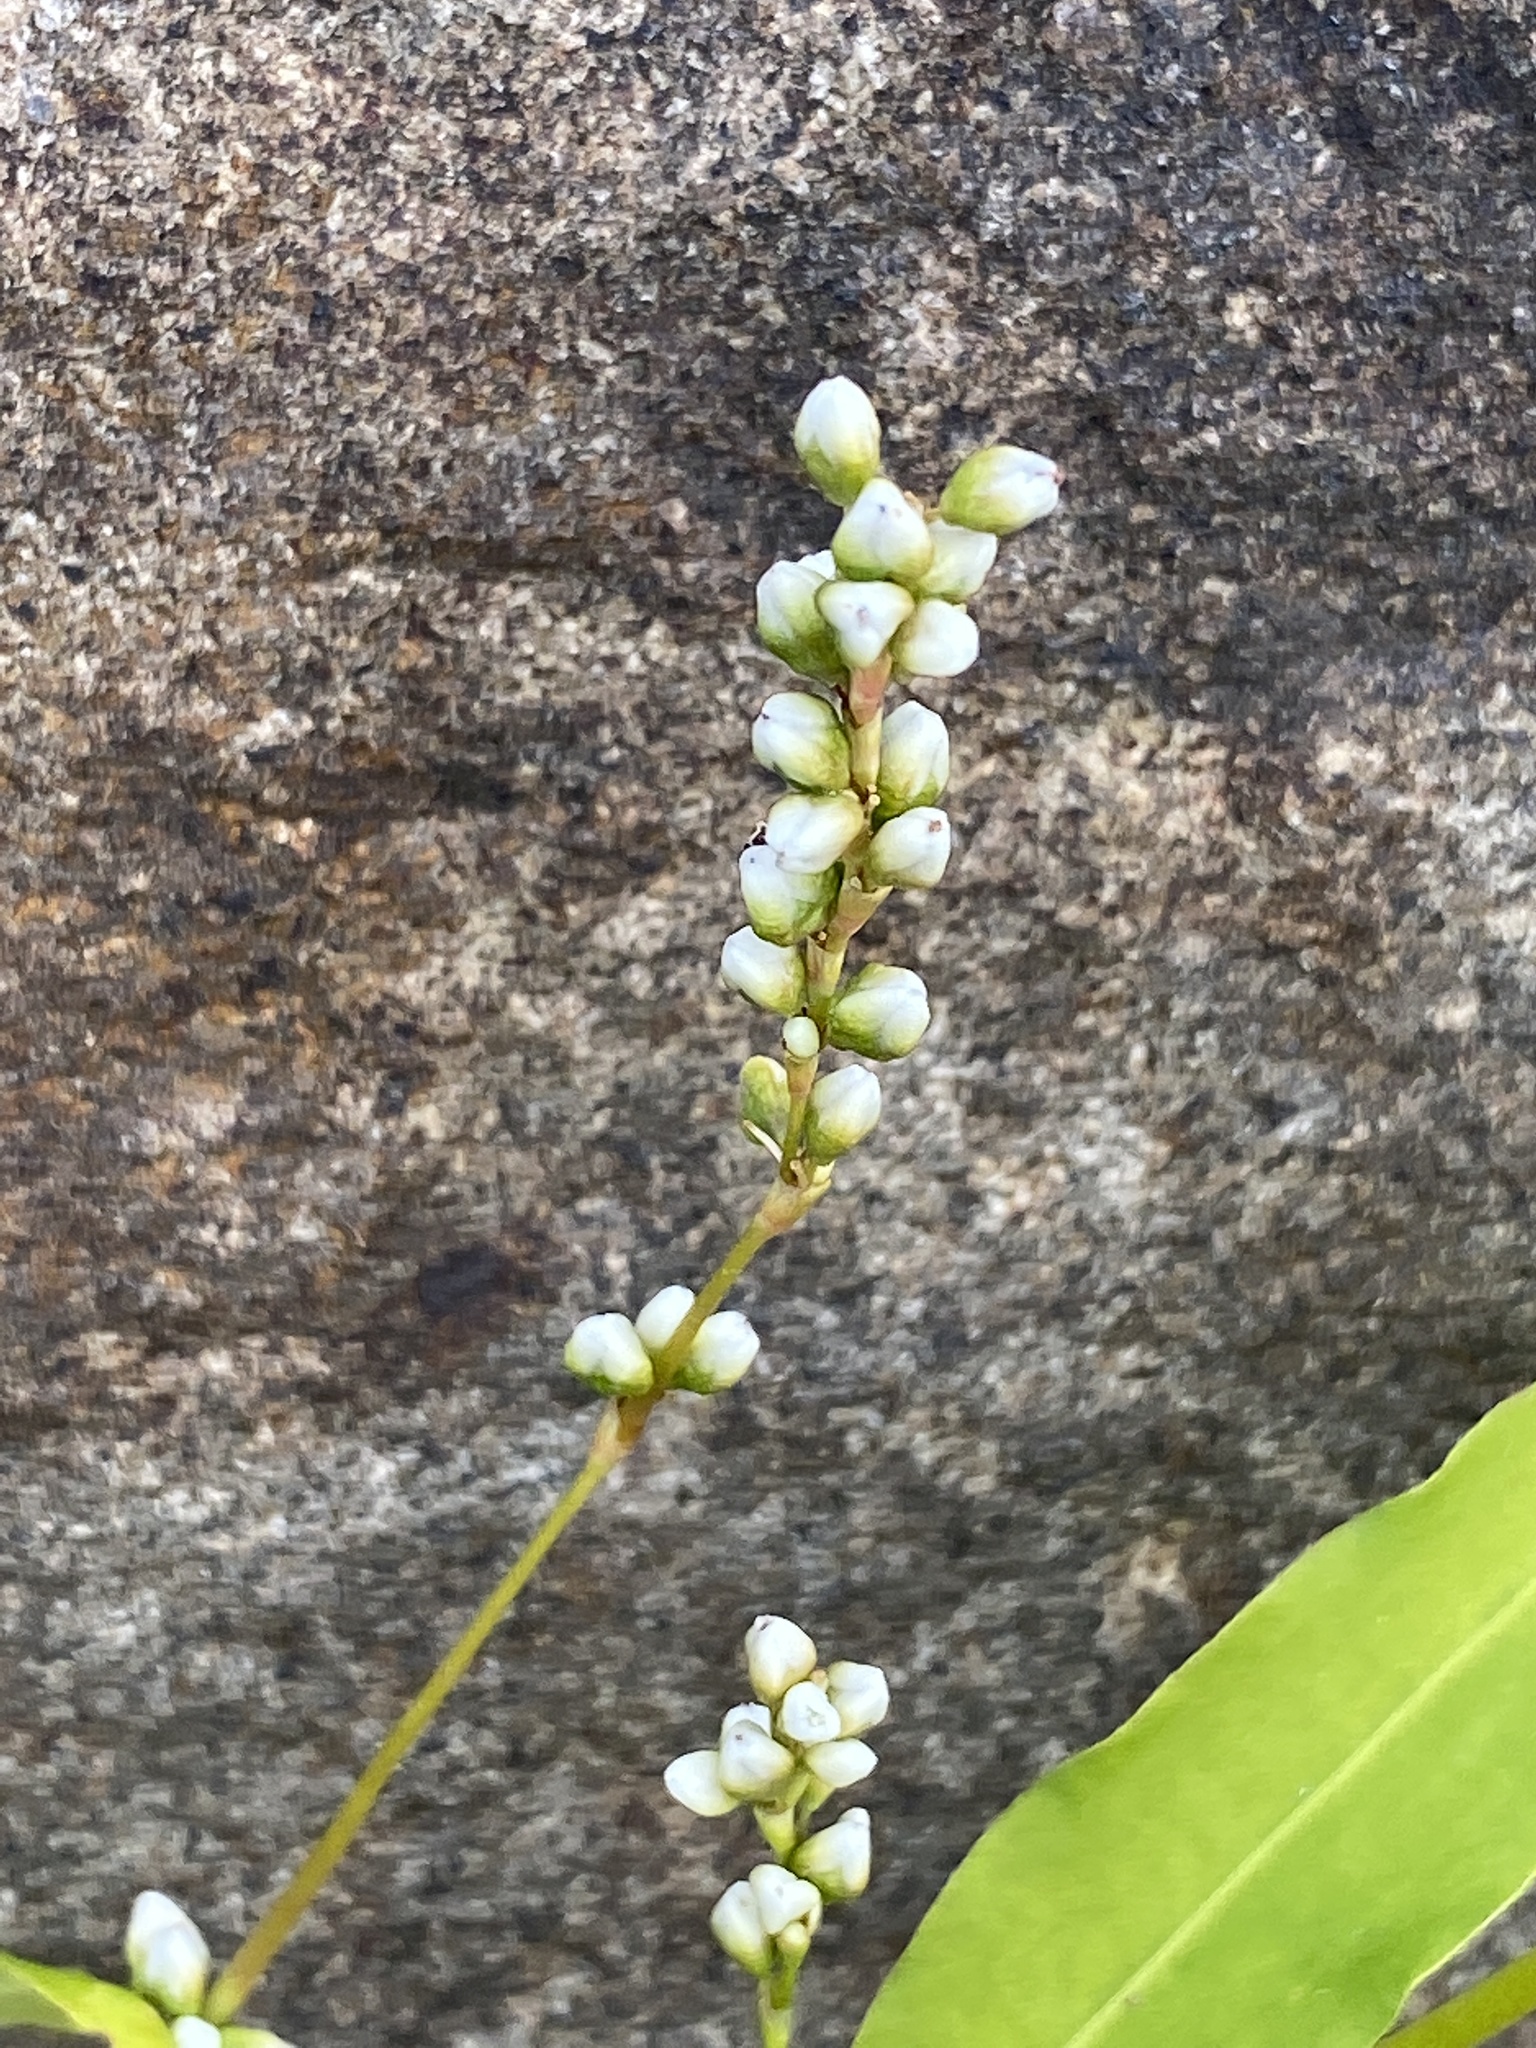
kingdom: Plantae
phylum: Tracheophyta
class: Magnoliopsida
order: Caryophyllales
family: Polygonaceae
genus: Persicaria
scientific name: Persicaria punctata
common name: Dotted smartweed
